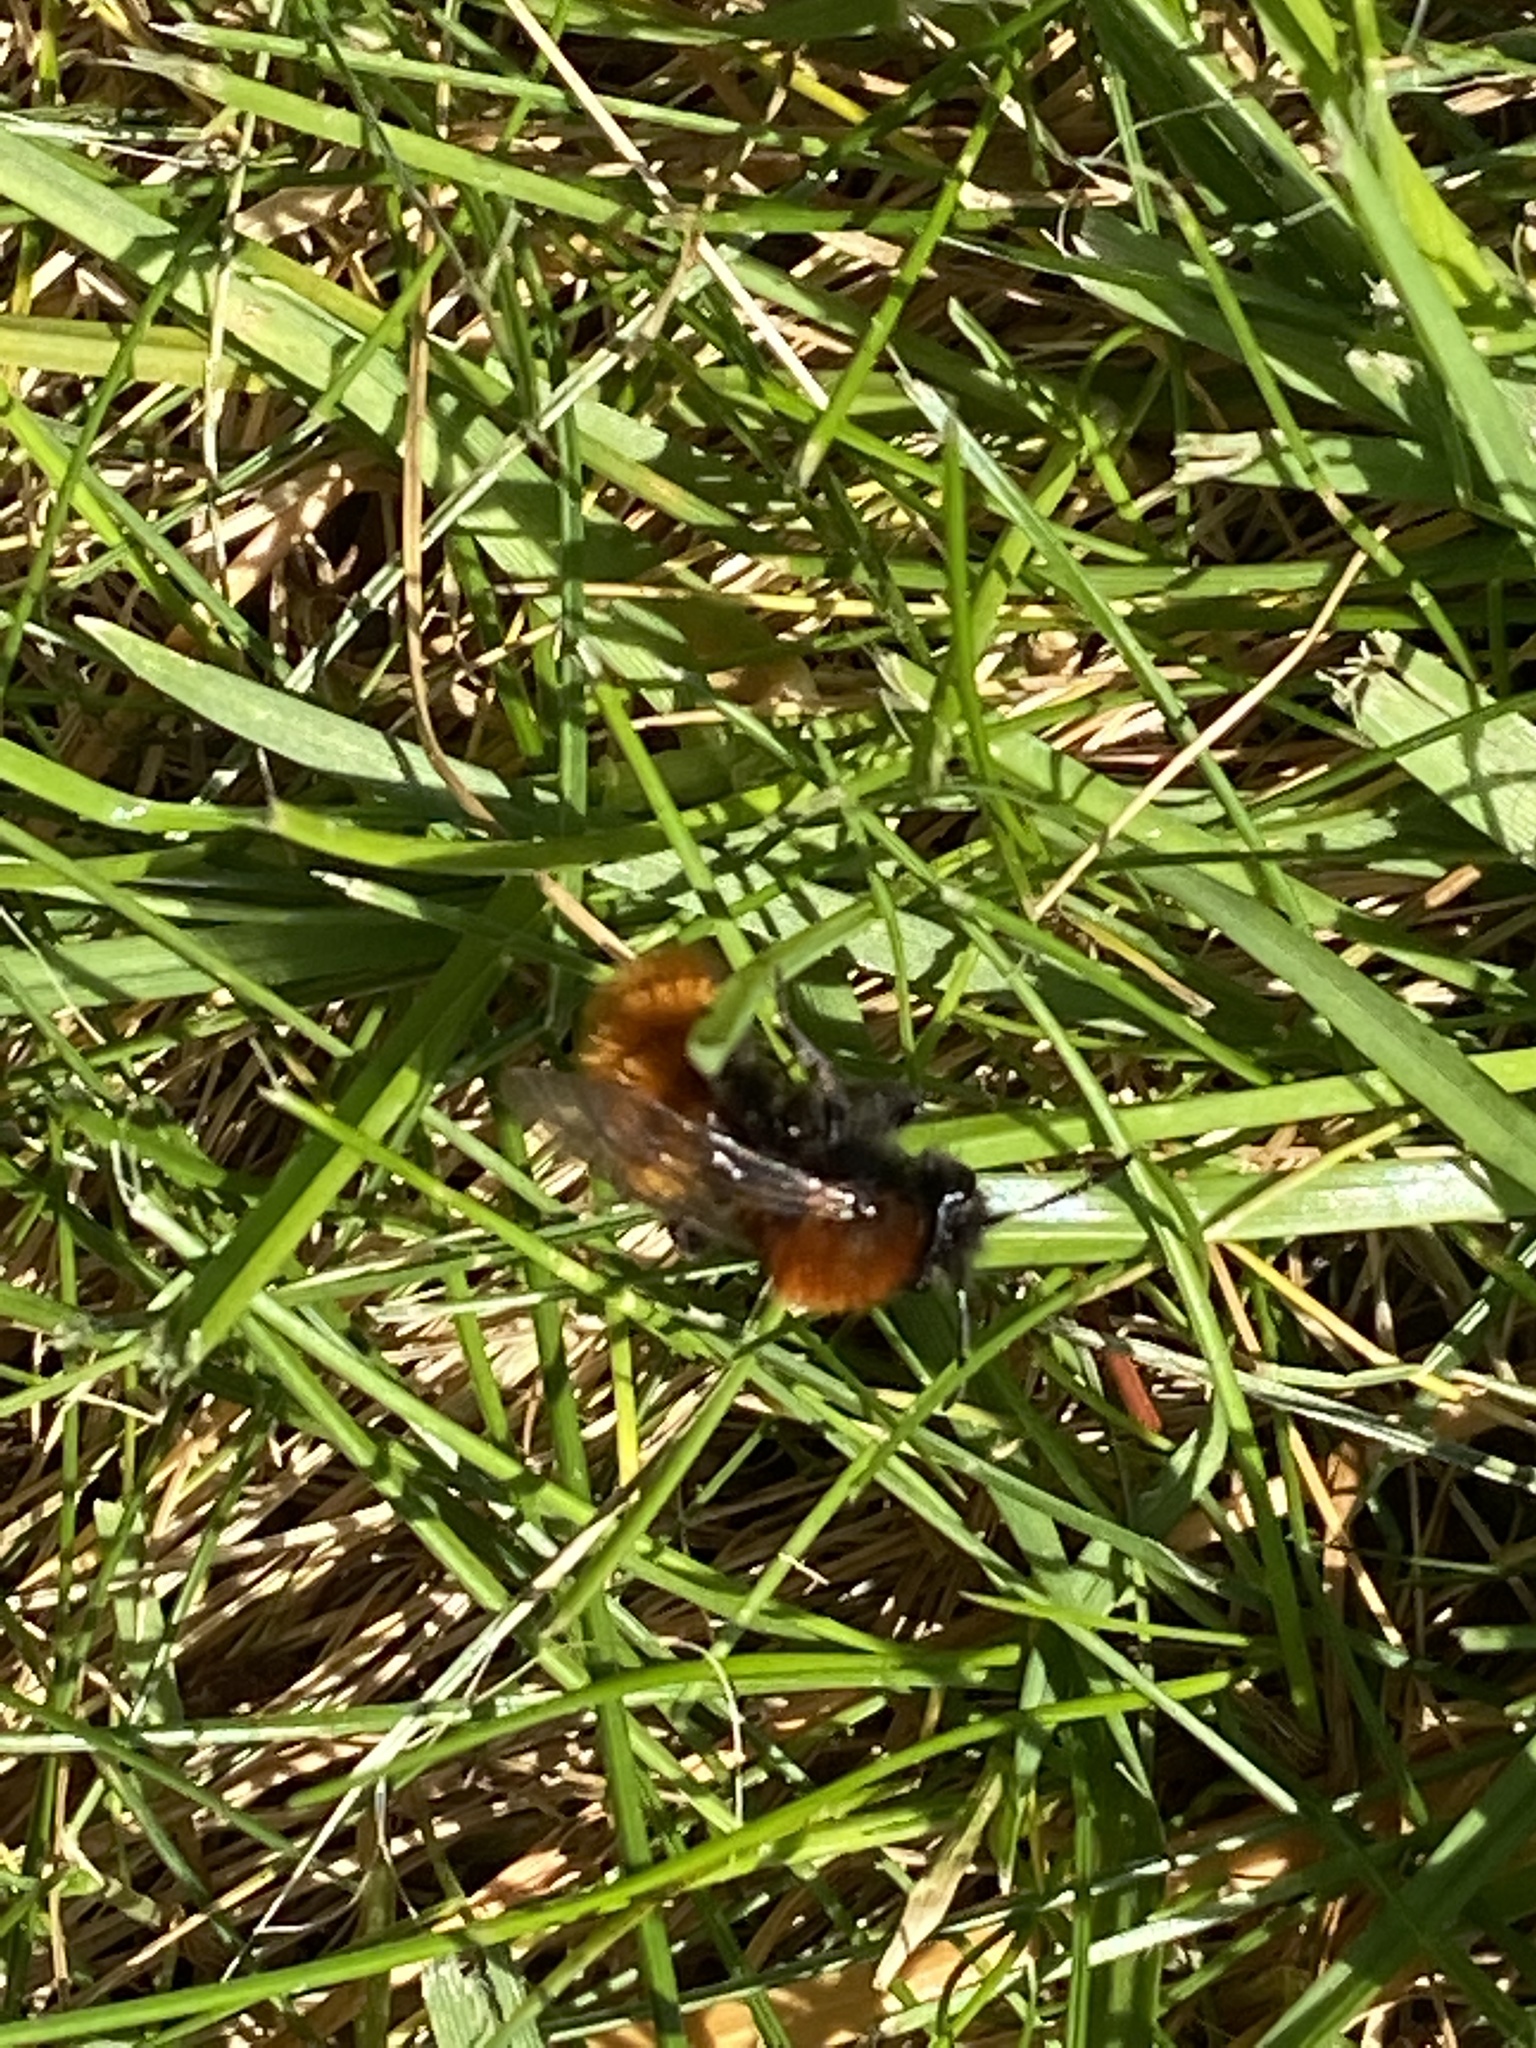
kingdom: Animalia
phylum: Arthropoda
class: Insecta
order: Hymenoptera
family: Andrenidae
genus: Andrena
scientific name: Andrena fulva
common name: Tawny mining bee
